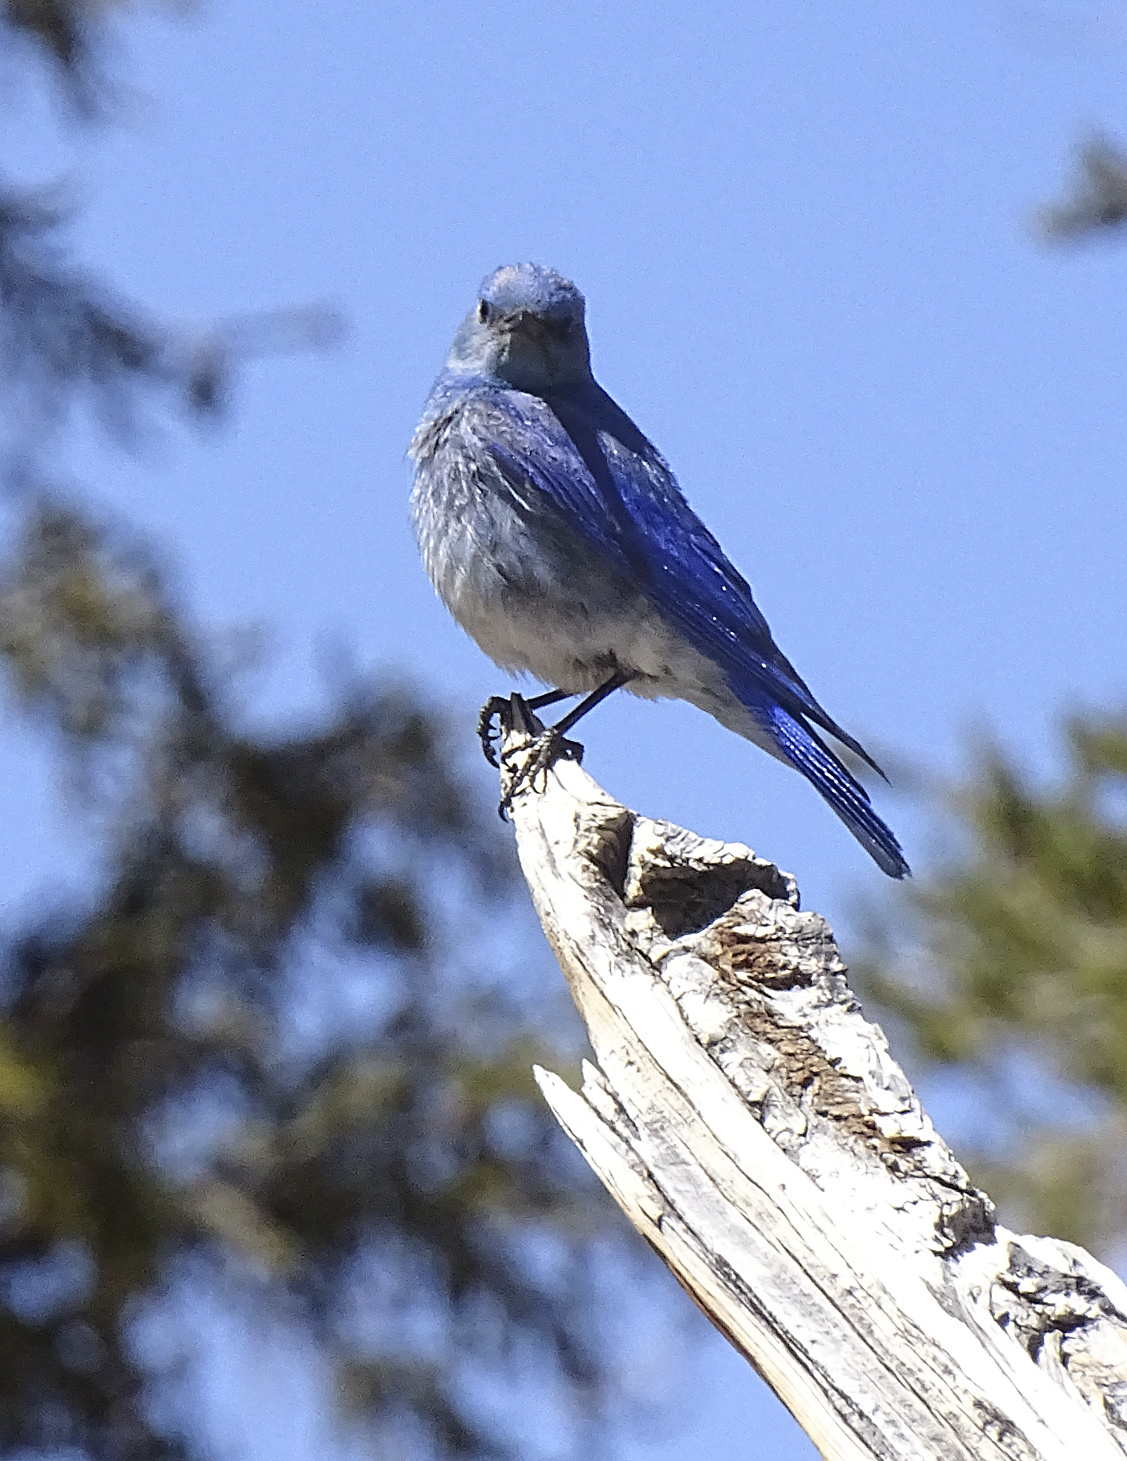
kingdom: Animalia
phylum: Chordata
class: Aves
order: Passeriformes
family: Turdidae
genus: Sialia
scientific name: Sialia currucoides
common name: Mountain bluebird
